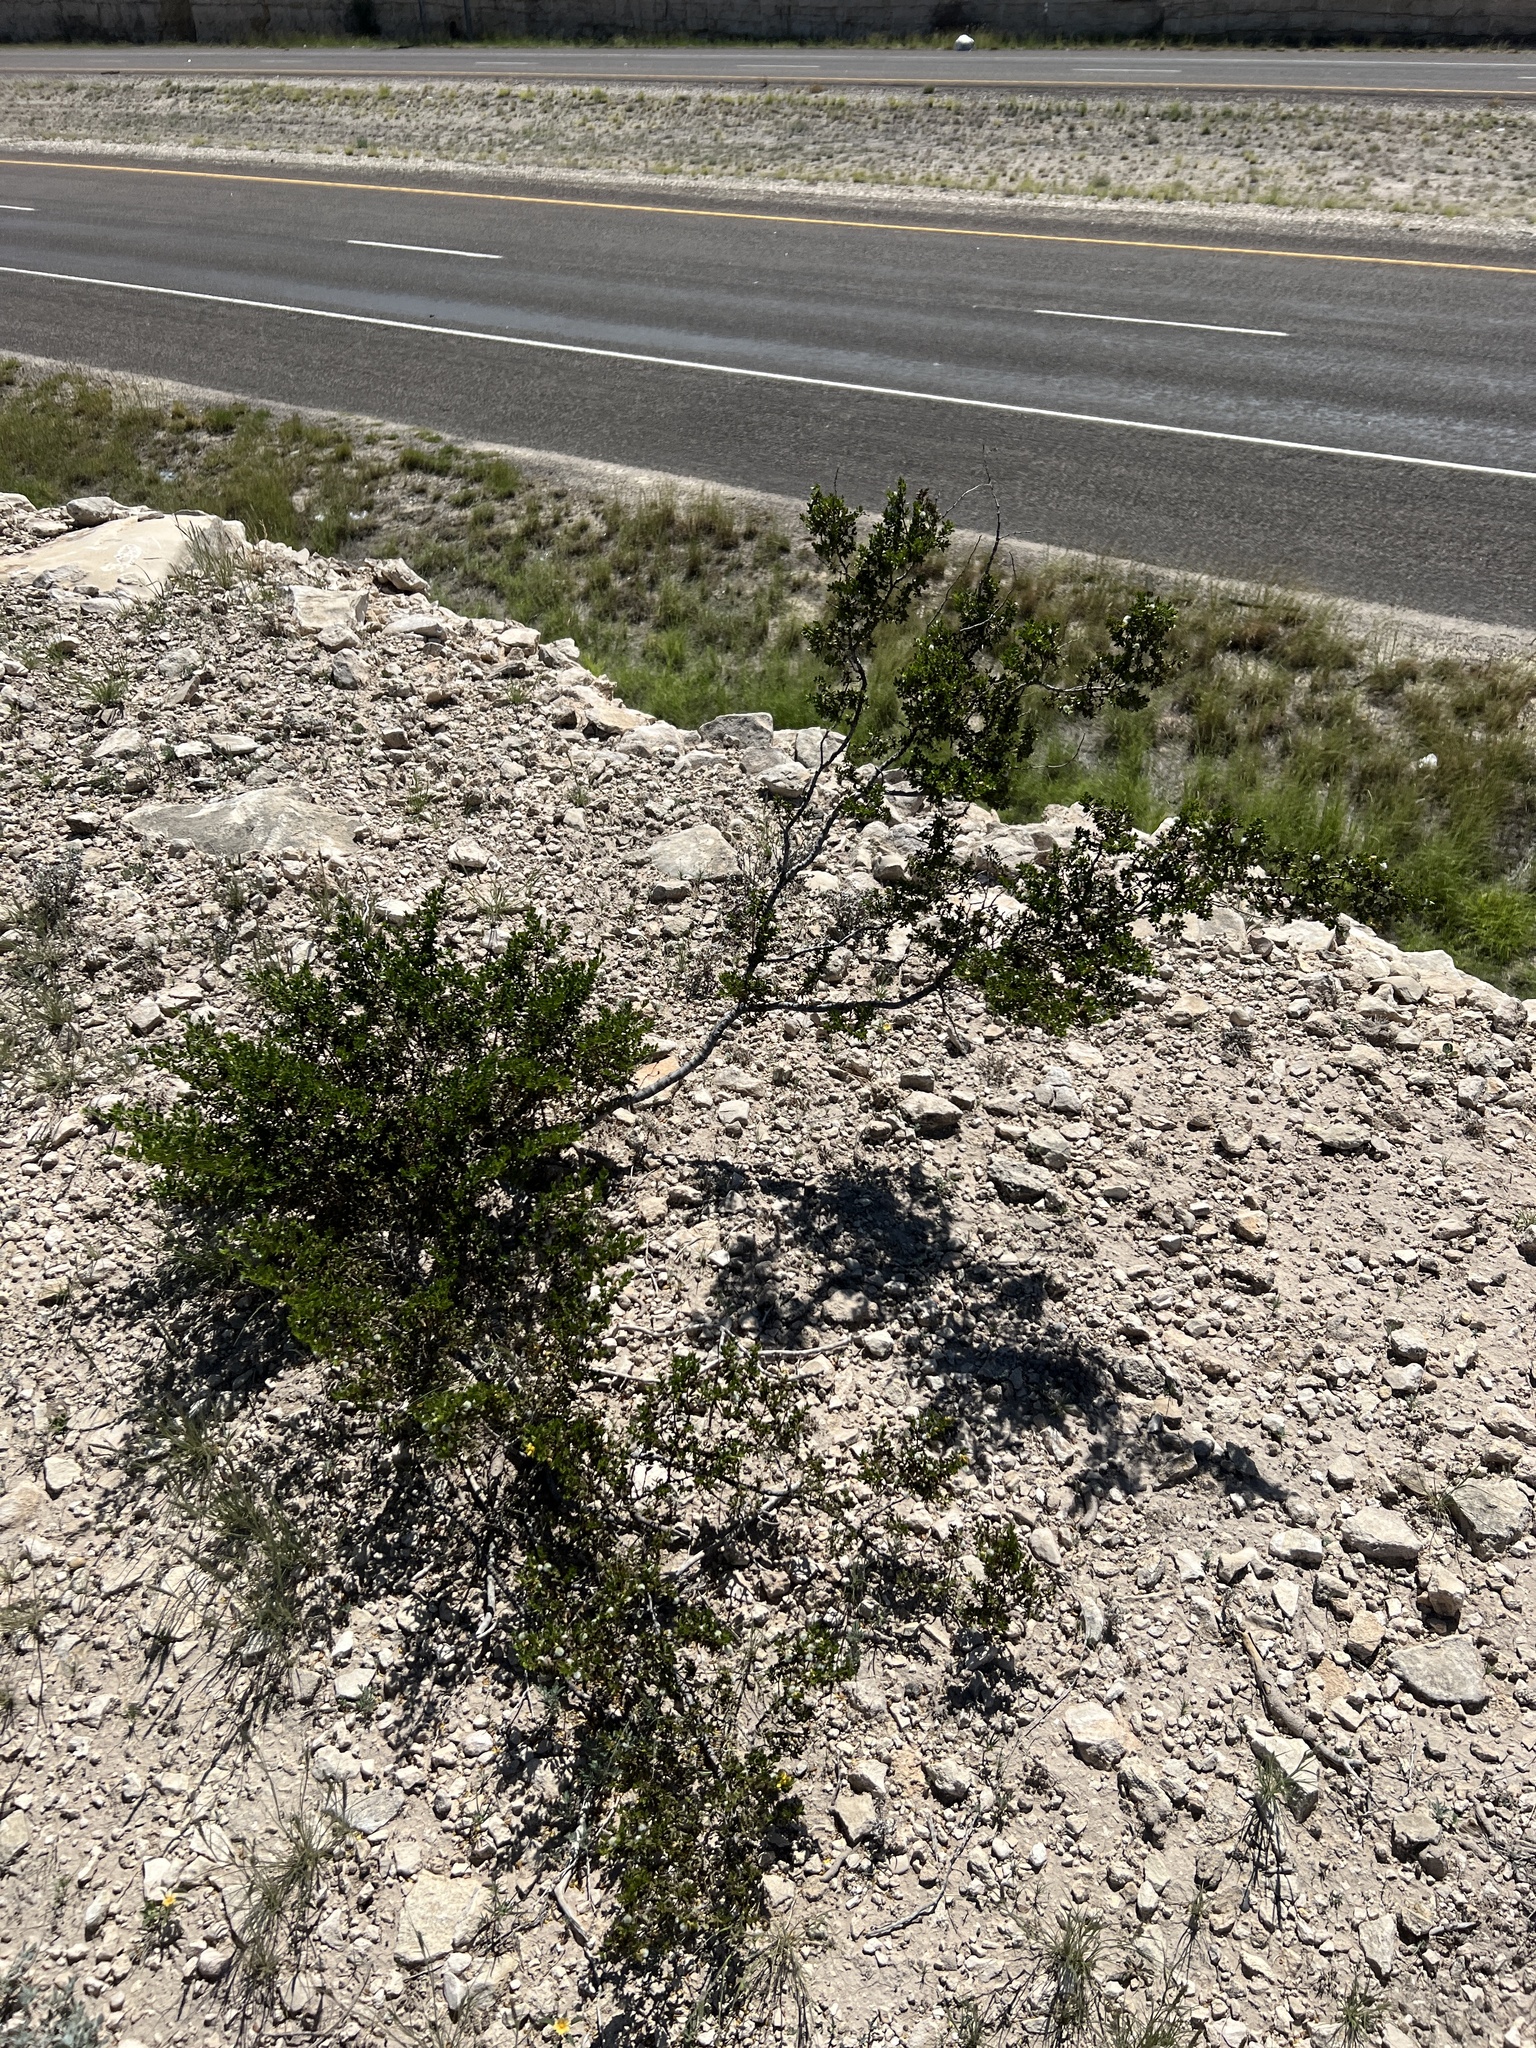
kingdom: Plantae
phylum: Tracheophyta
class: Magnoliopsida
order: Zygophyllales
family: Zygophyllaceae
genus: Larrea
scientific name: Larrea tridentata
